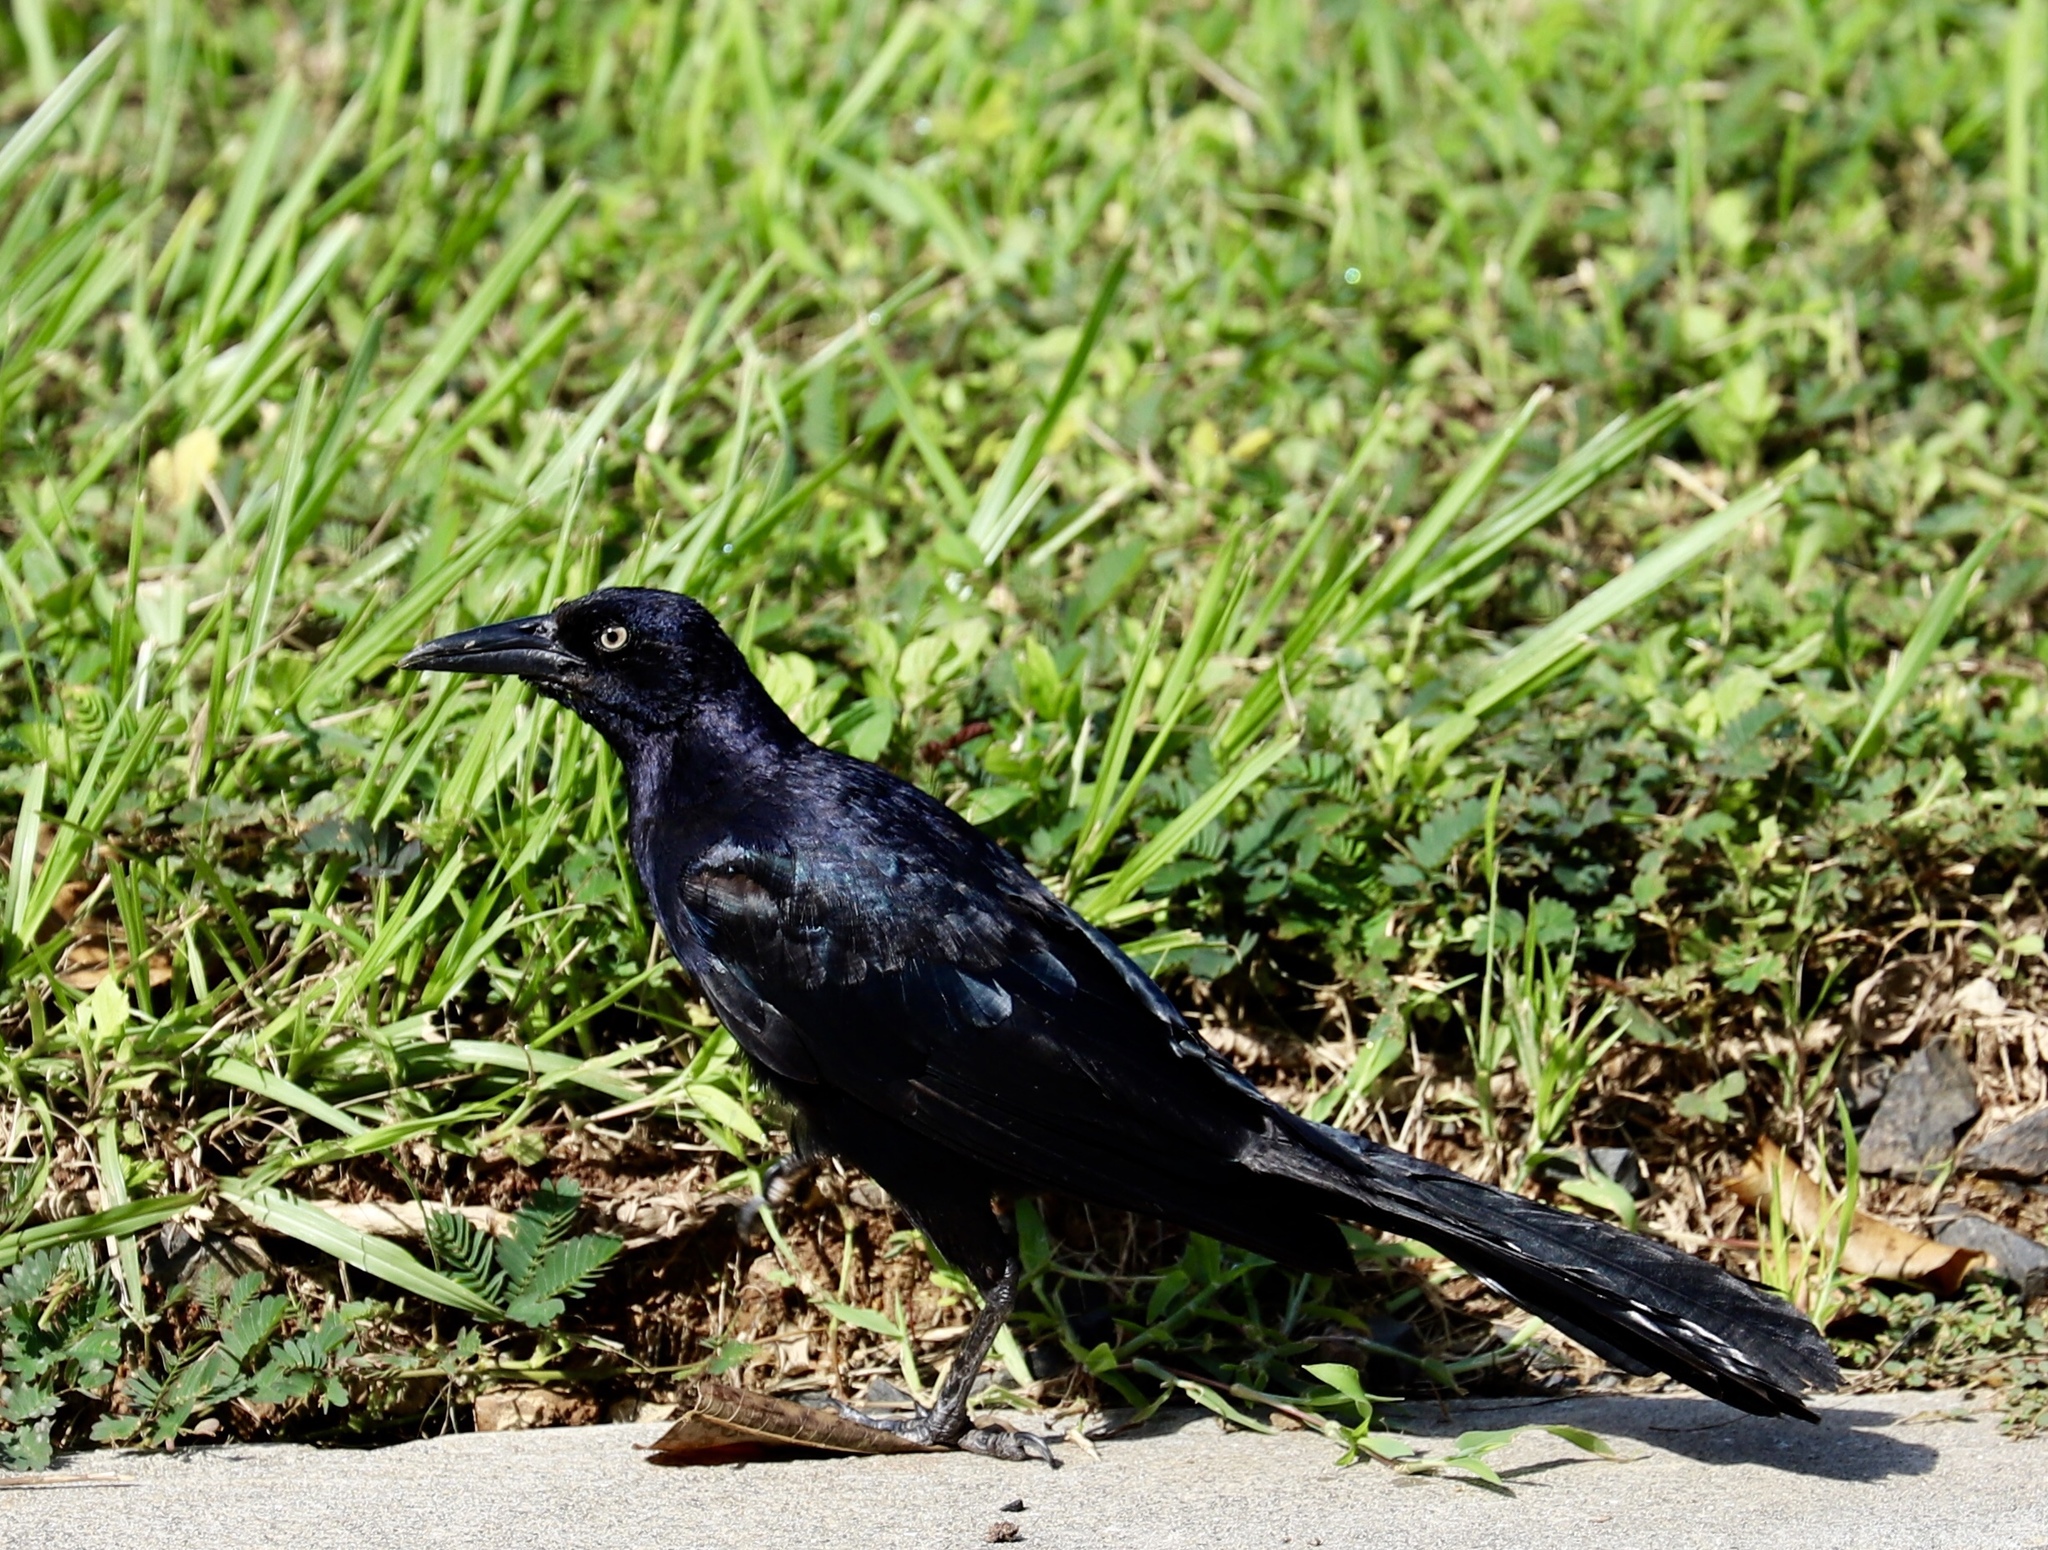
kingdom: Animalia
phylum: Chordata
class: Aves
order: Passeriformes
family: Icteridae
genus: Quiscalus
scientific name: Quiscalus mexicanus
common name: Great-tailed grackle
